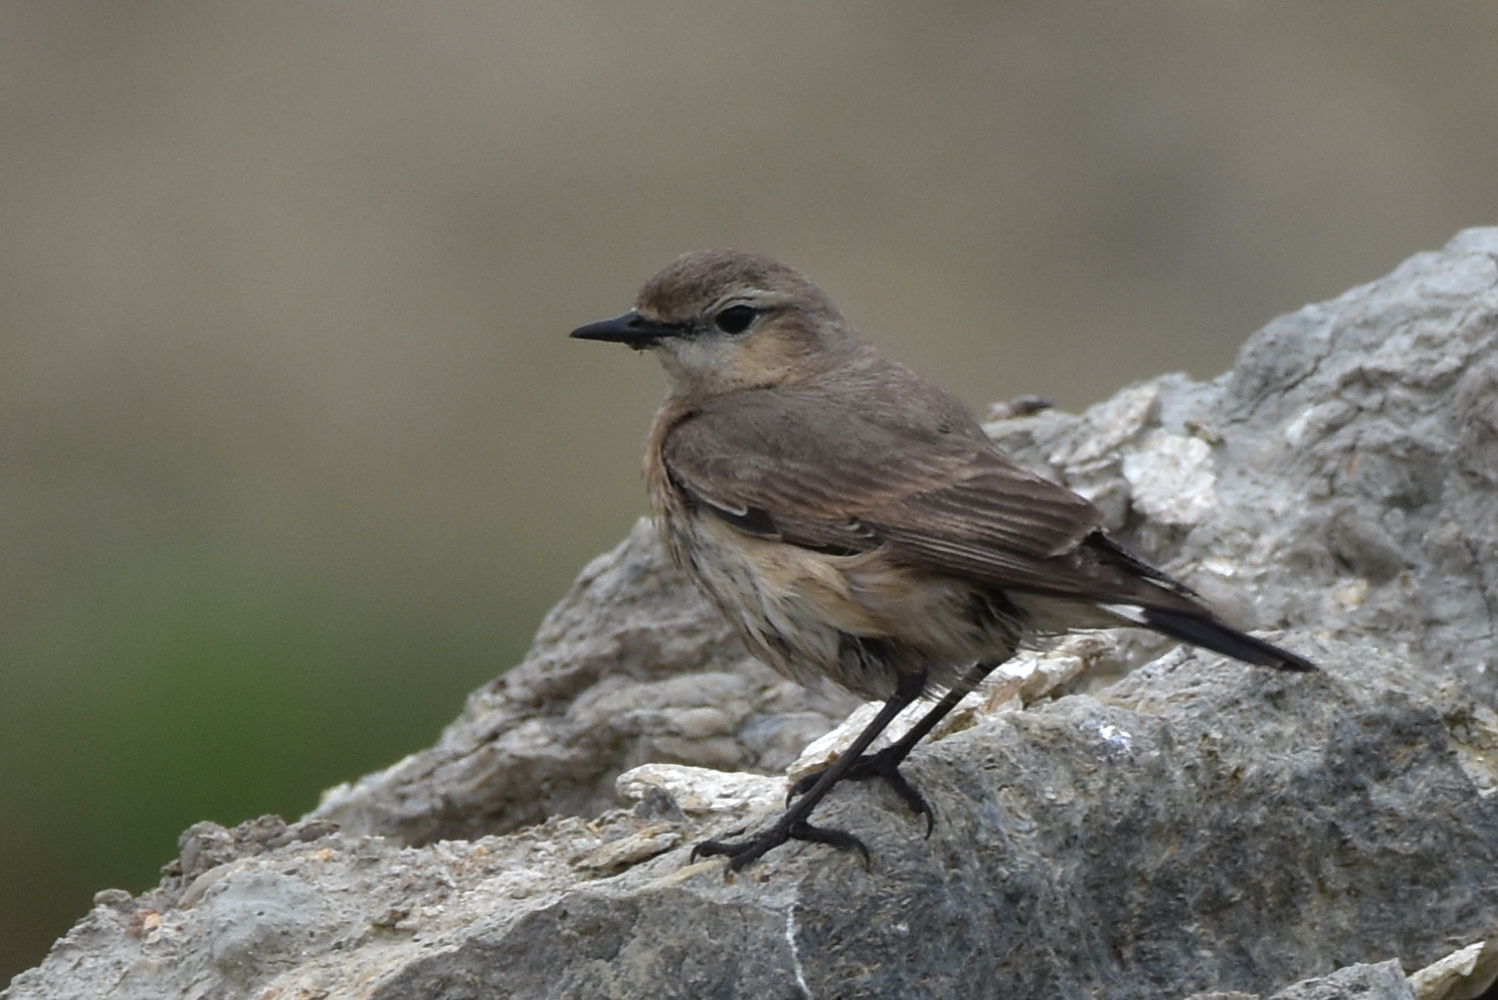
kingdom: Animalia
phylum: Chordata
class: Aves
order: Passeriformes
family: Muscicapidae
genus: Oenanthe
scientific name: Oenanthe isabellina
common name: Isabelline wheatear
